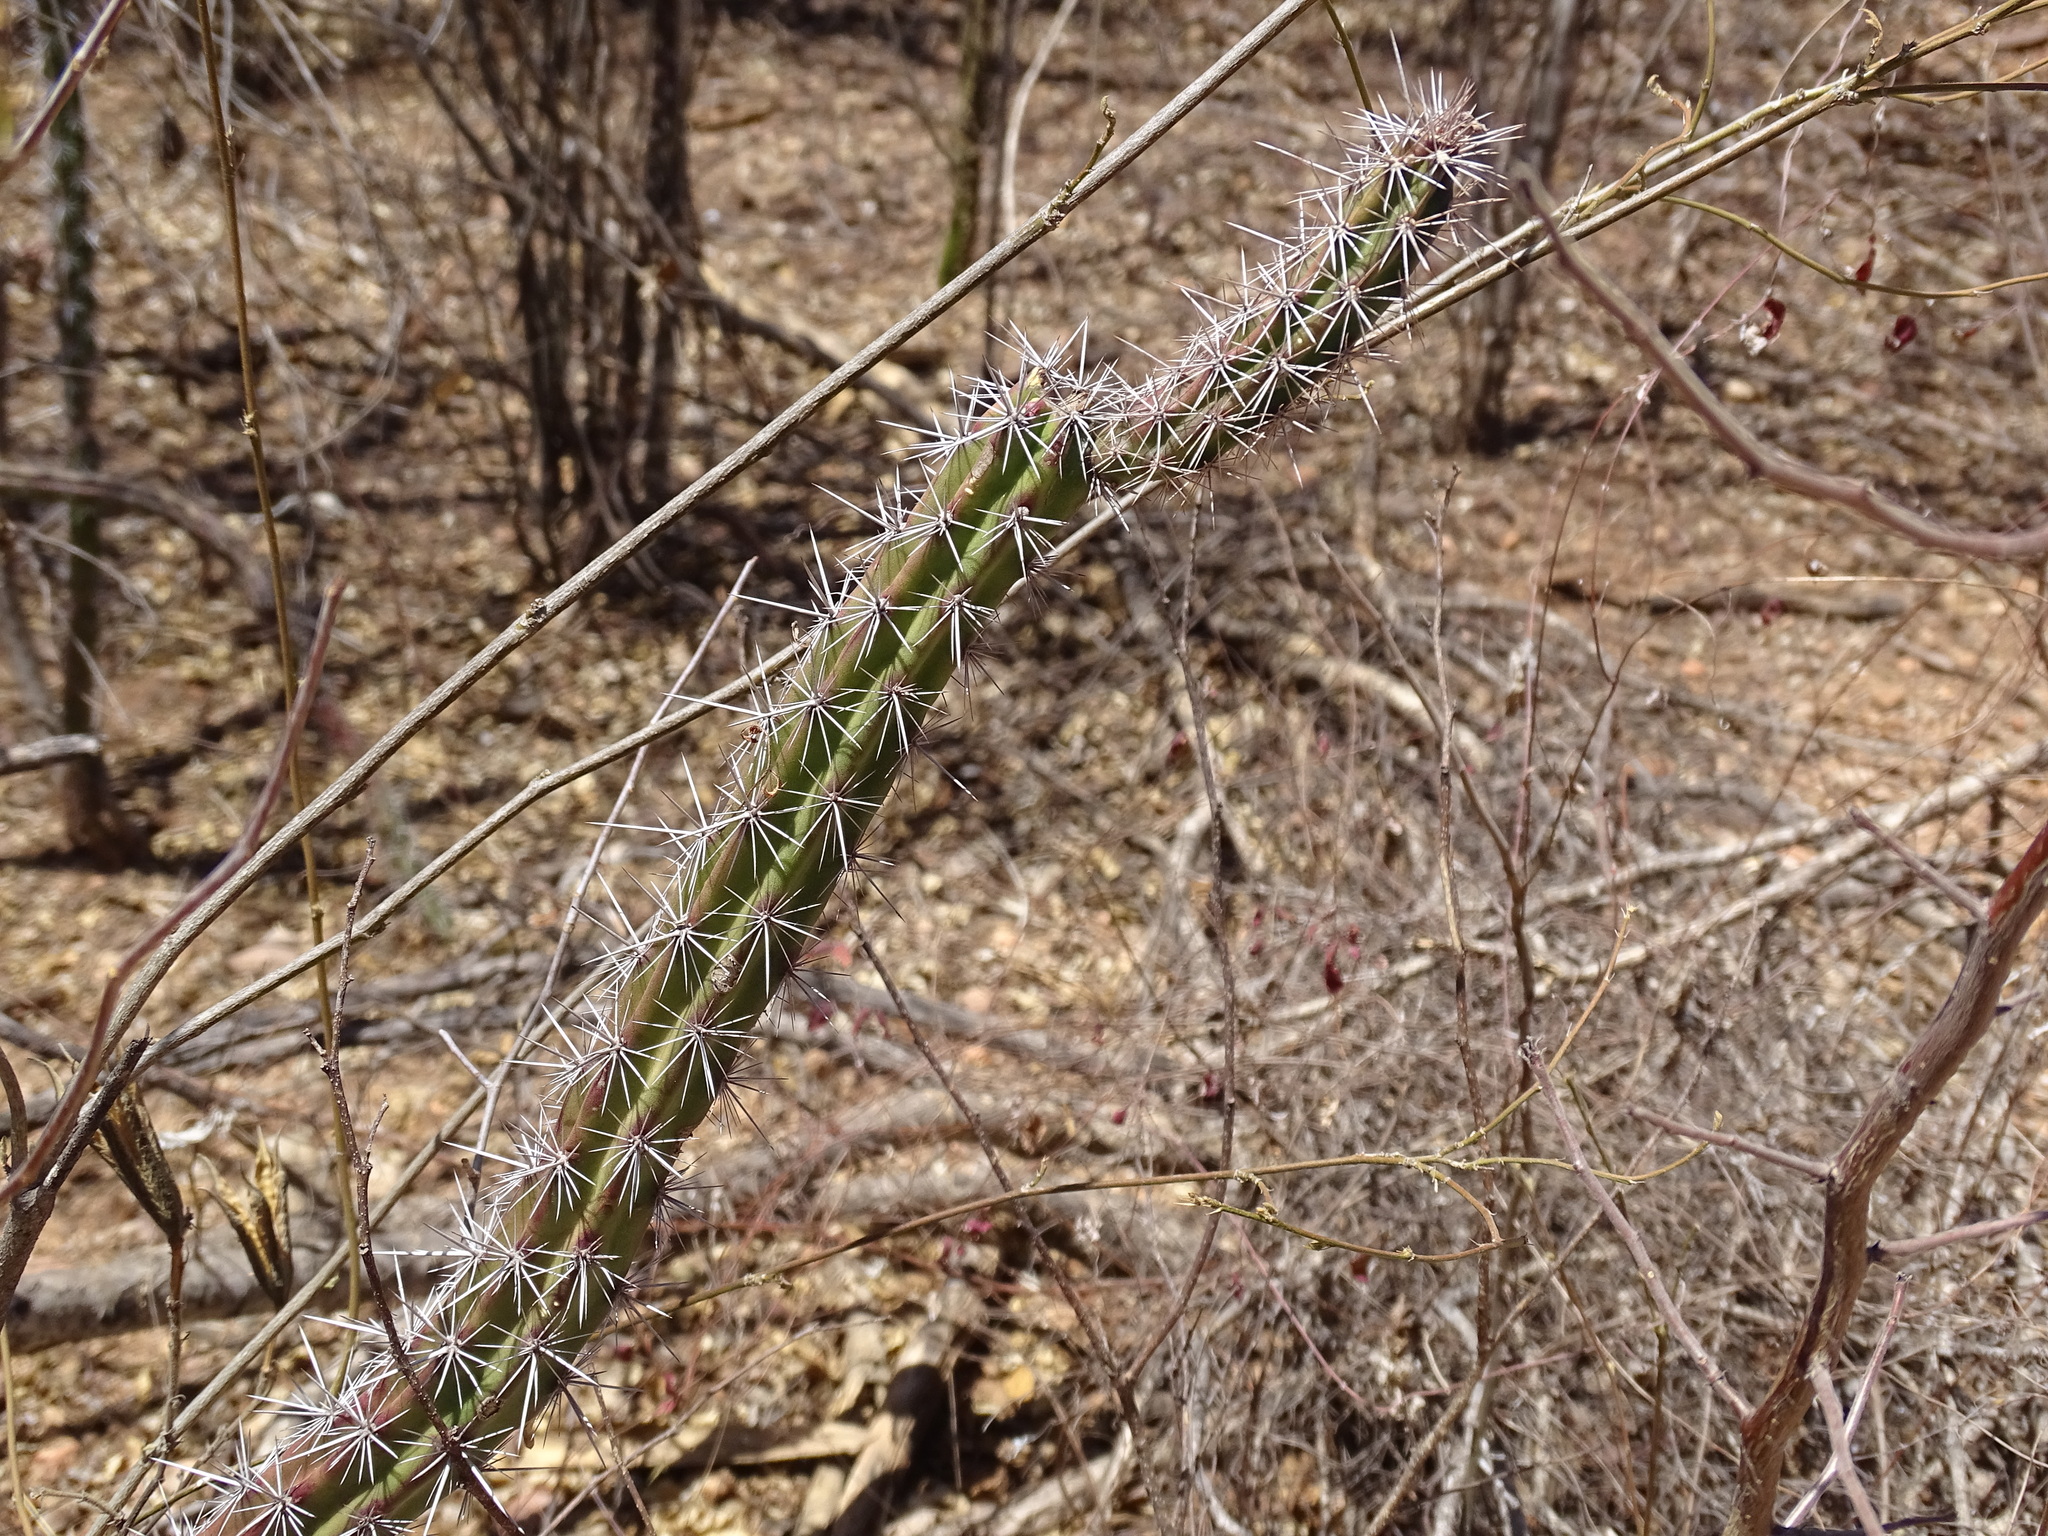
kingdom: Plantae
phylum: Tracheophyta
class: Magnoliopsida
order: Caryophyllales
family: Cactaceae
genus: Stenocereus
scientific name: Stenocereus alamosensis
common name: Octopus cactus
